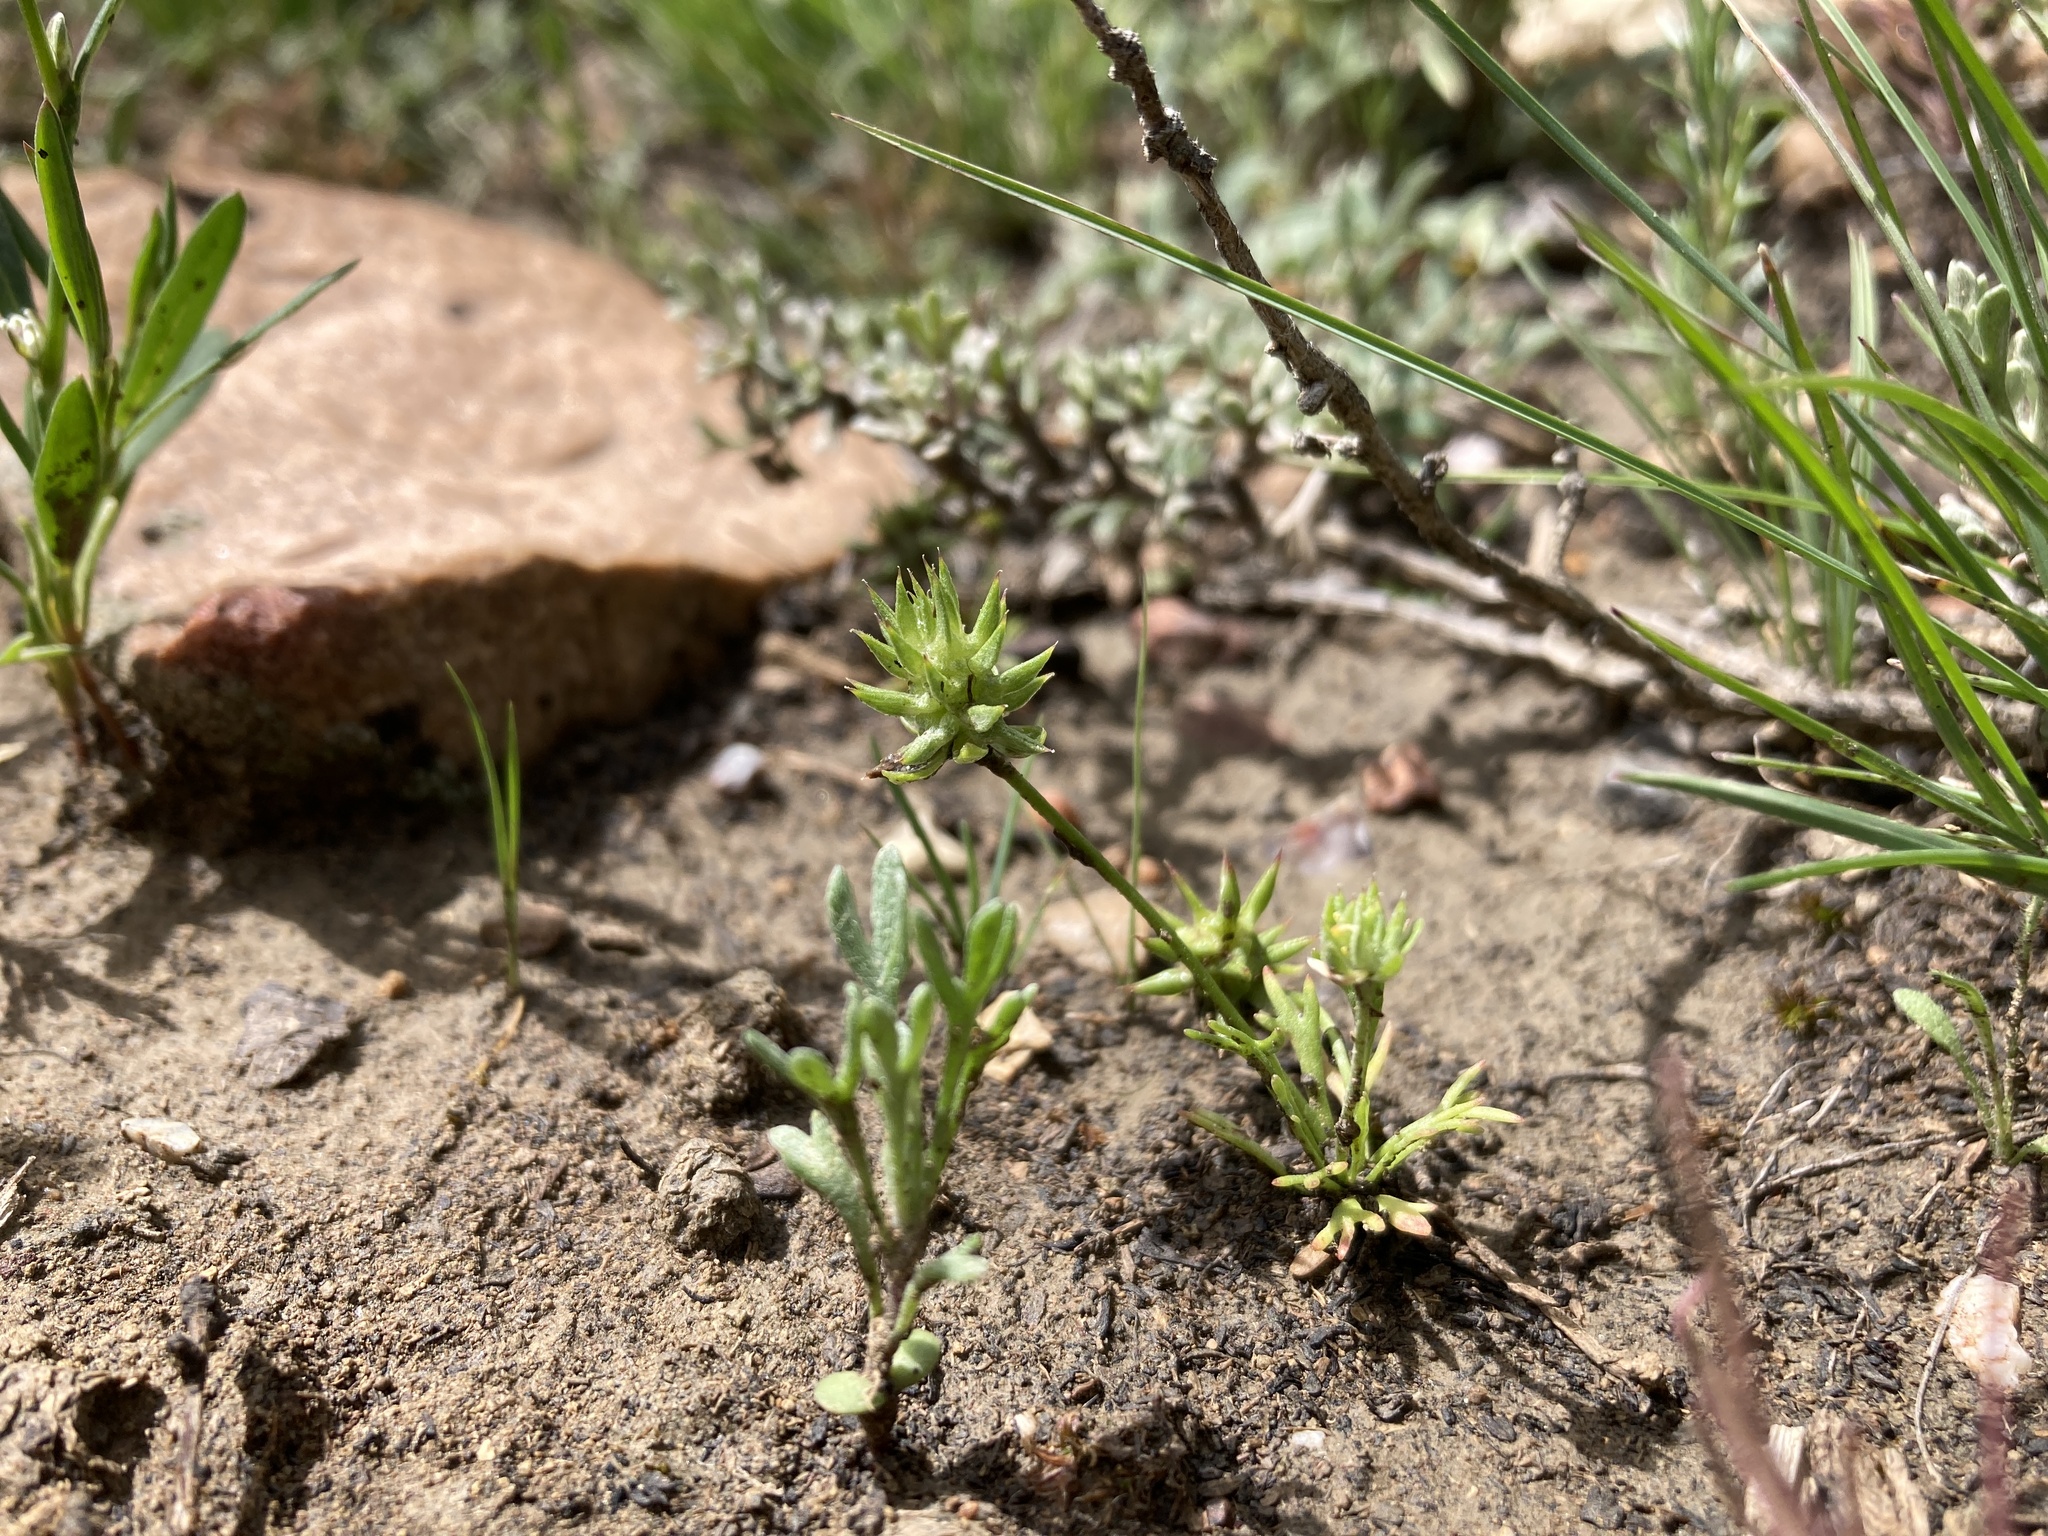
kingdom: Plantae
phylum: Tracheophyta
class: Magnoliopsida
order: Ranunculales
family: Ranunculaceae
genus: Ceratocephala
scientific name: Ceratocephala orthoceras
